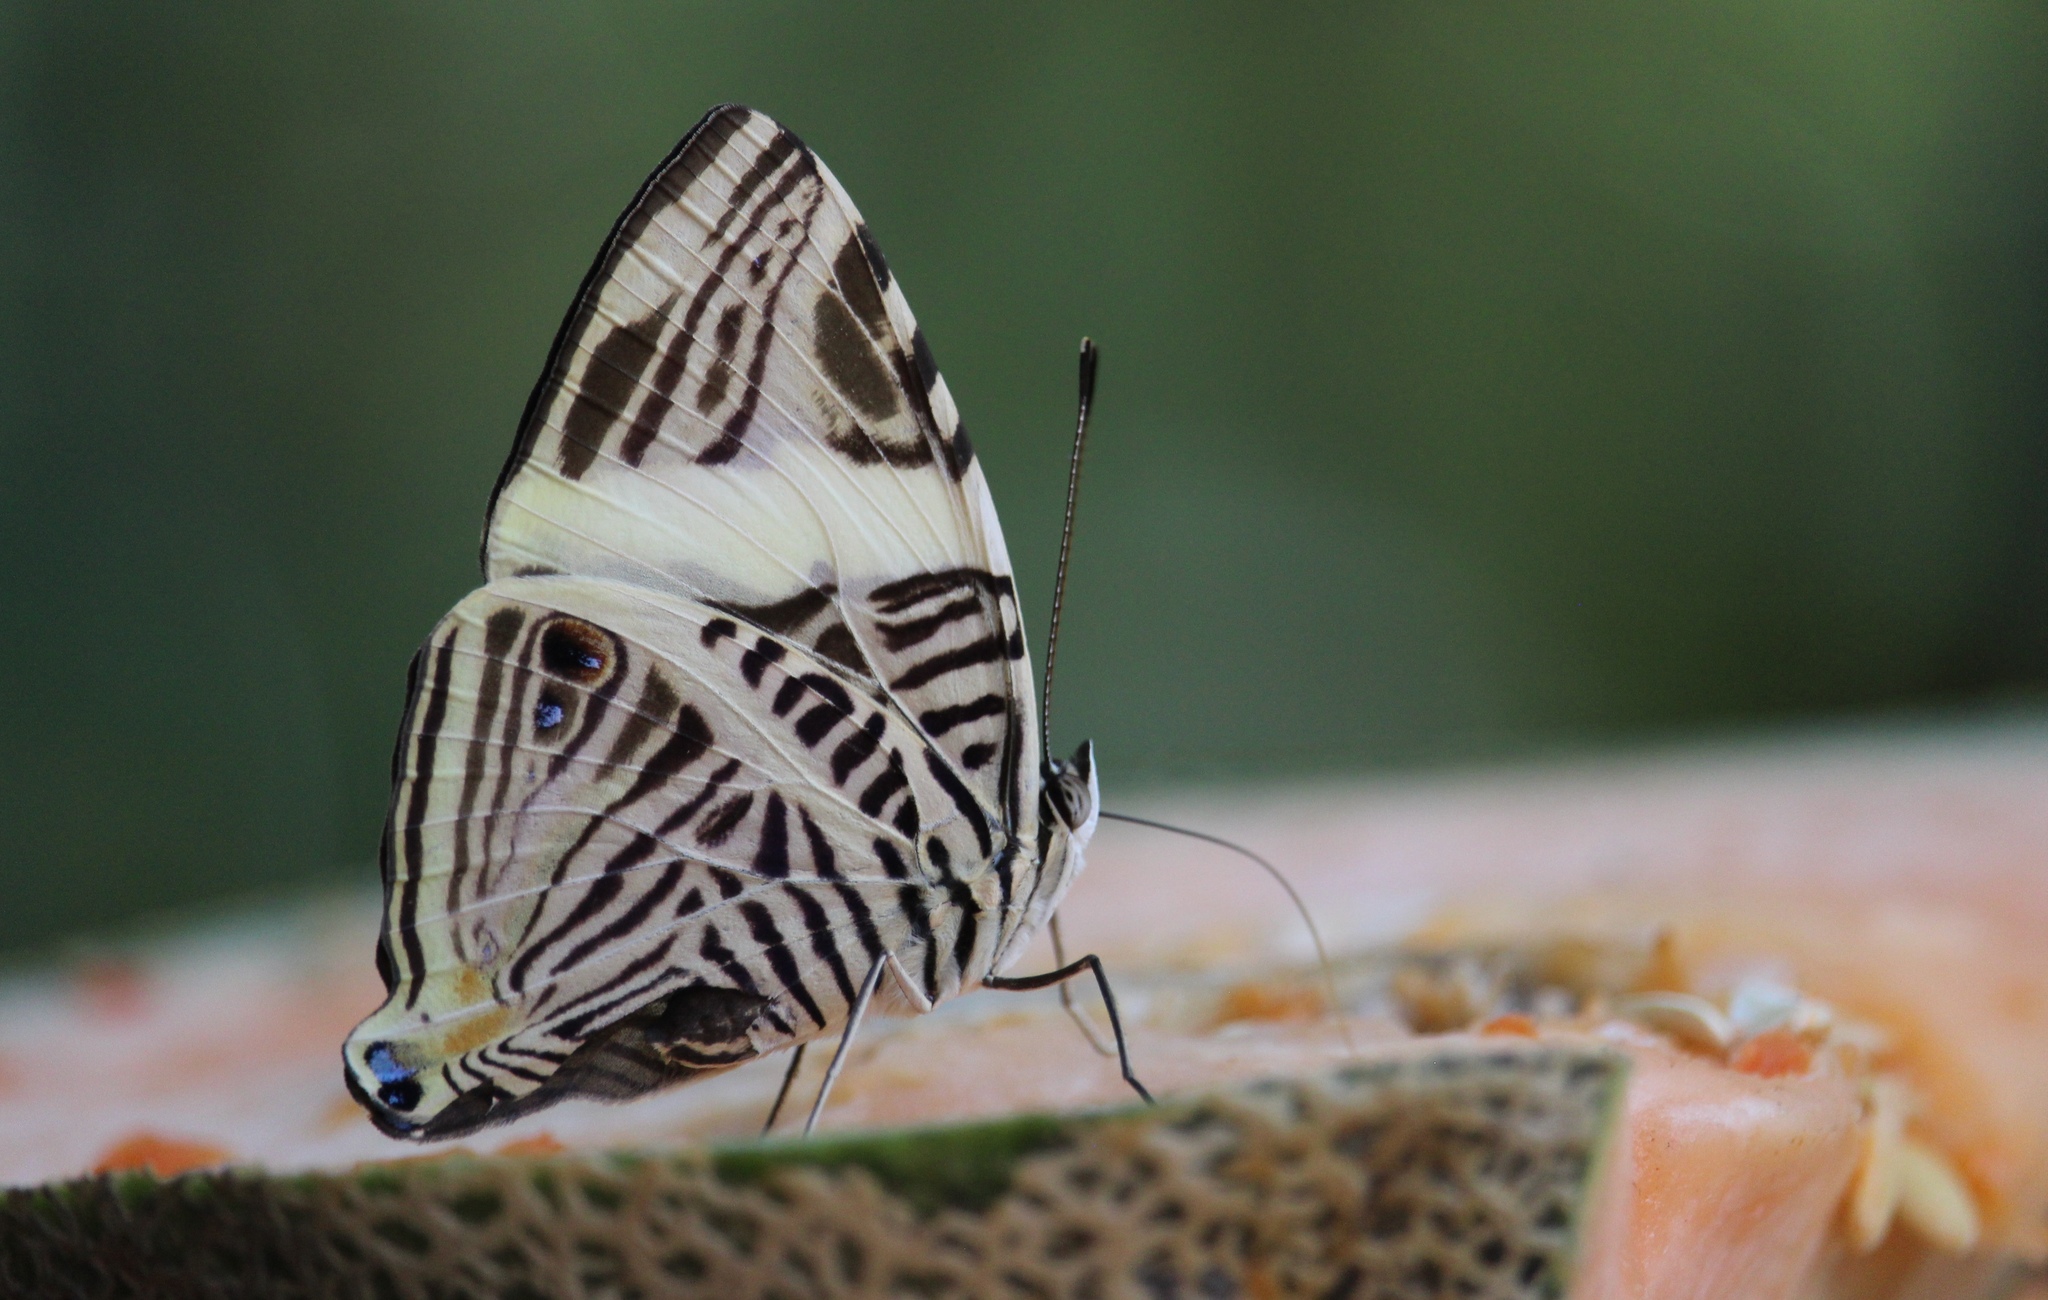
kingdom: Animalia
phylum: Arthropoda
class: Insecta
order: Lepidoptera
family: Nymphalidae
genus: Colobura
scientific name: Colobura dirce
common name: Dirce beauty
